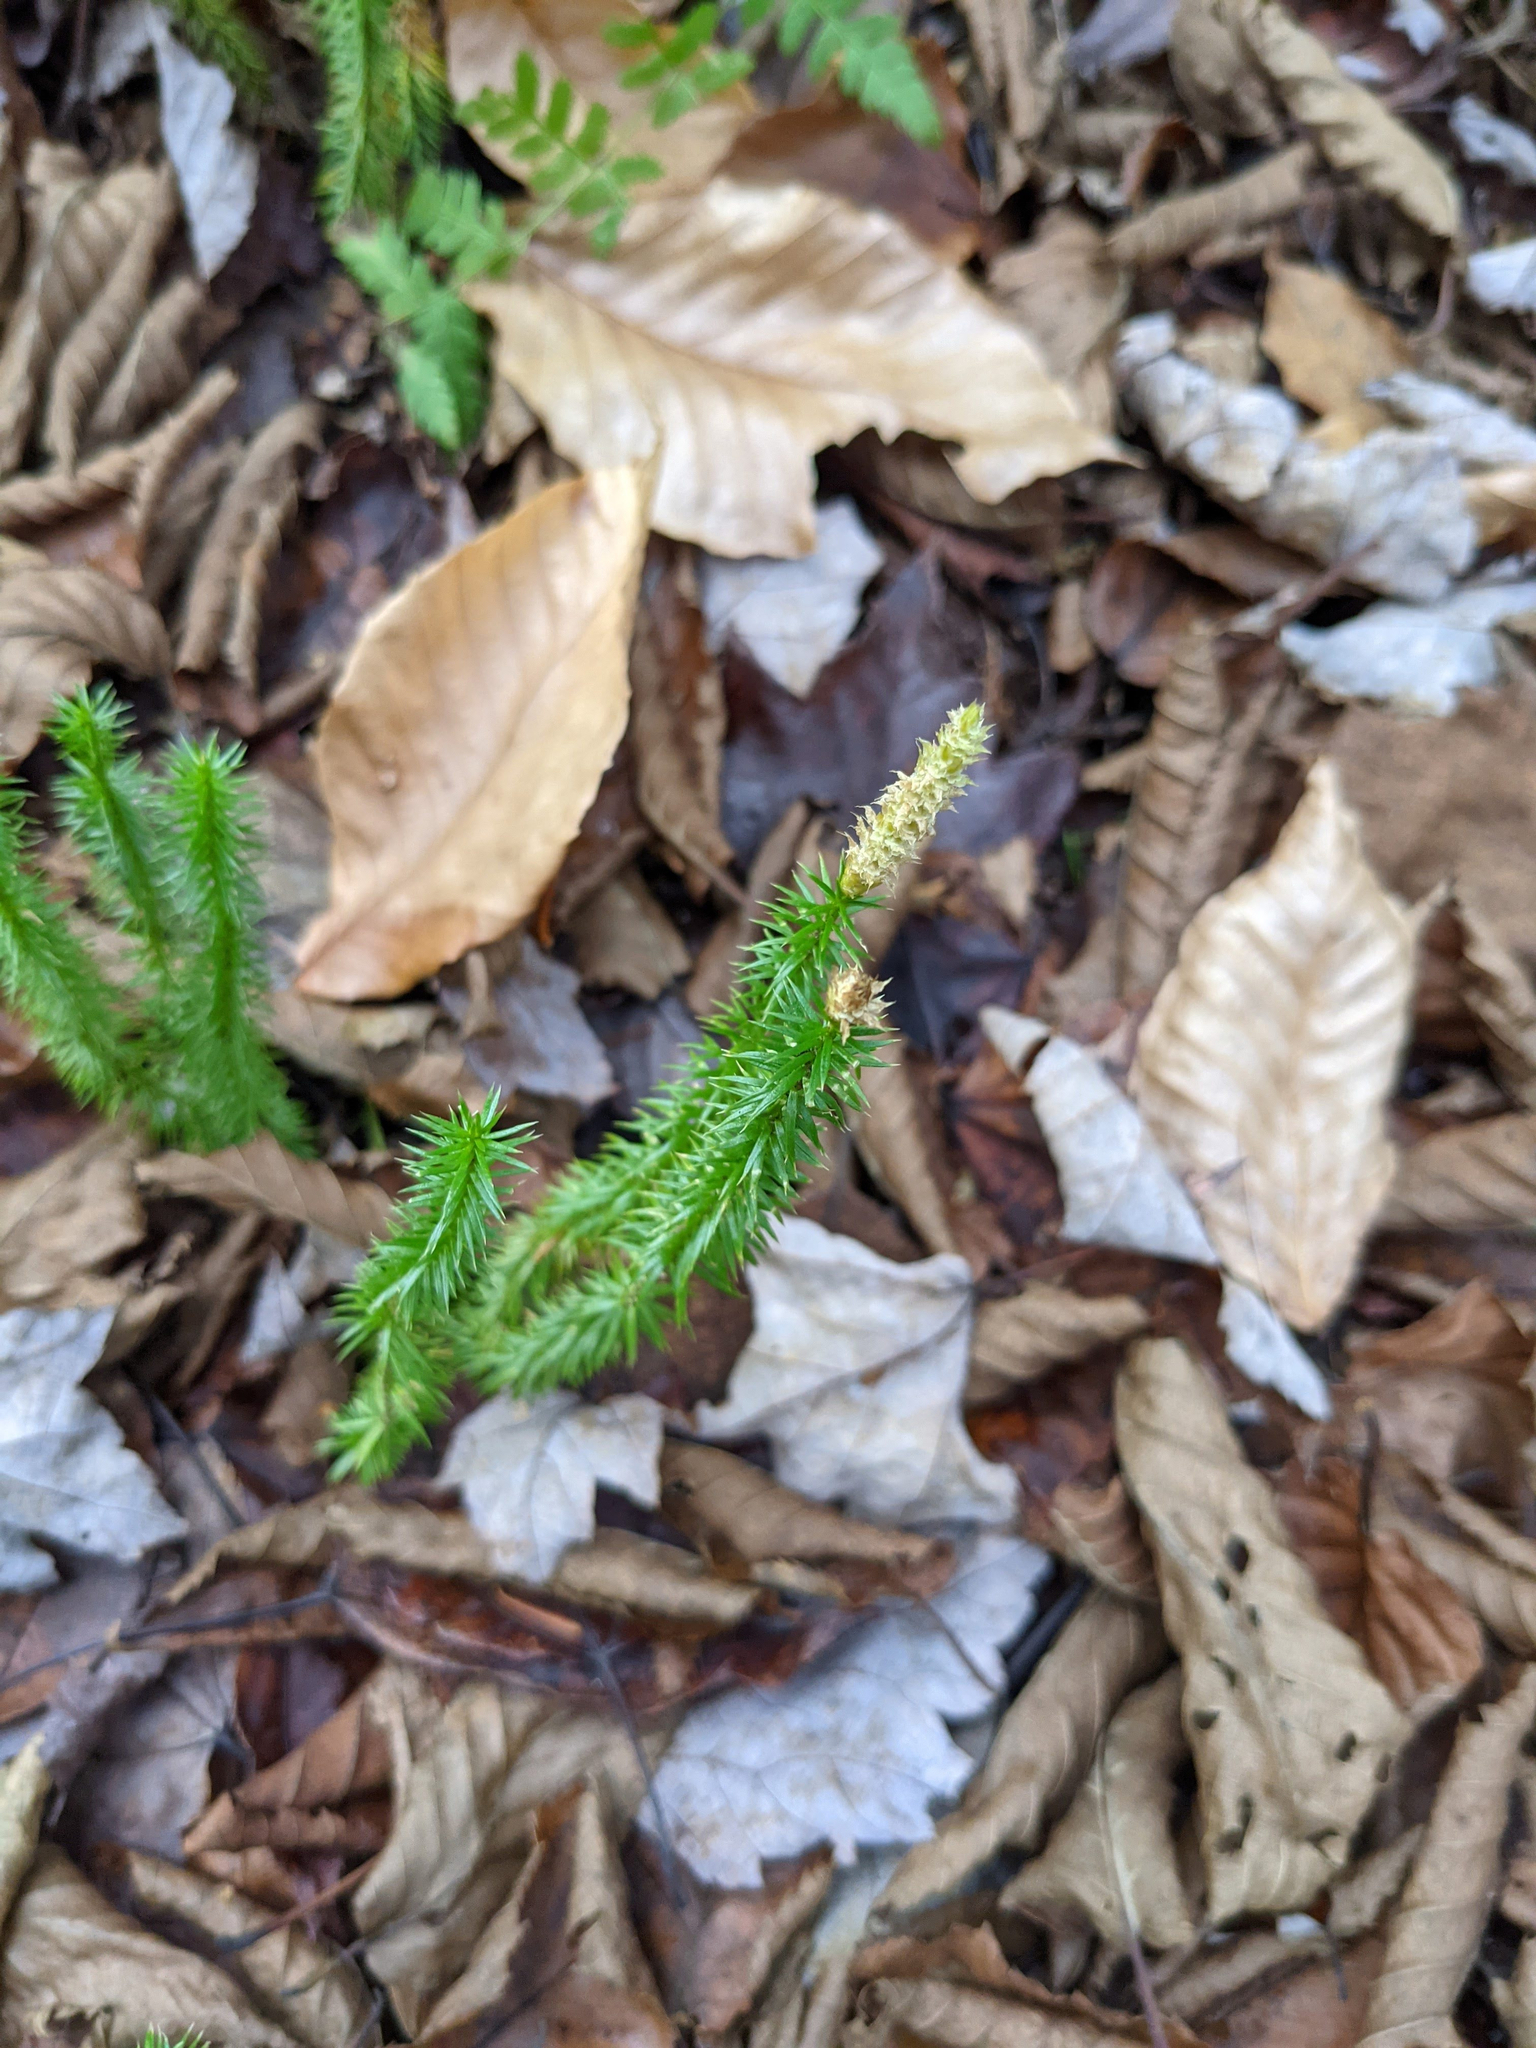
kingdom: Plantae
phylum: Tracheophyta
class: Lycopodiopsida
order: Lycopodiales
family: Lycopodiaceae
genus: Spinulum
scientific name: Spinulum annotinum
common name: Interrupted club-moss
